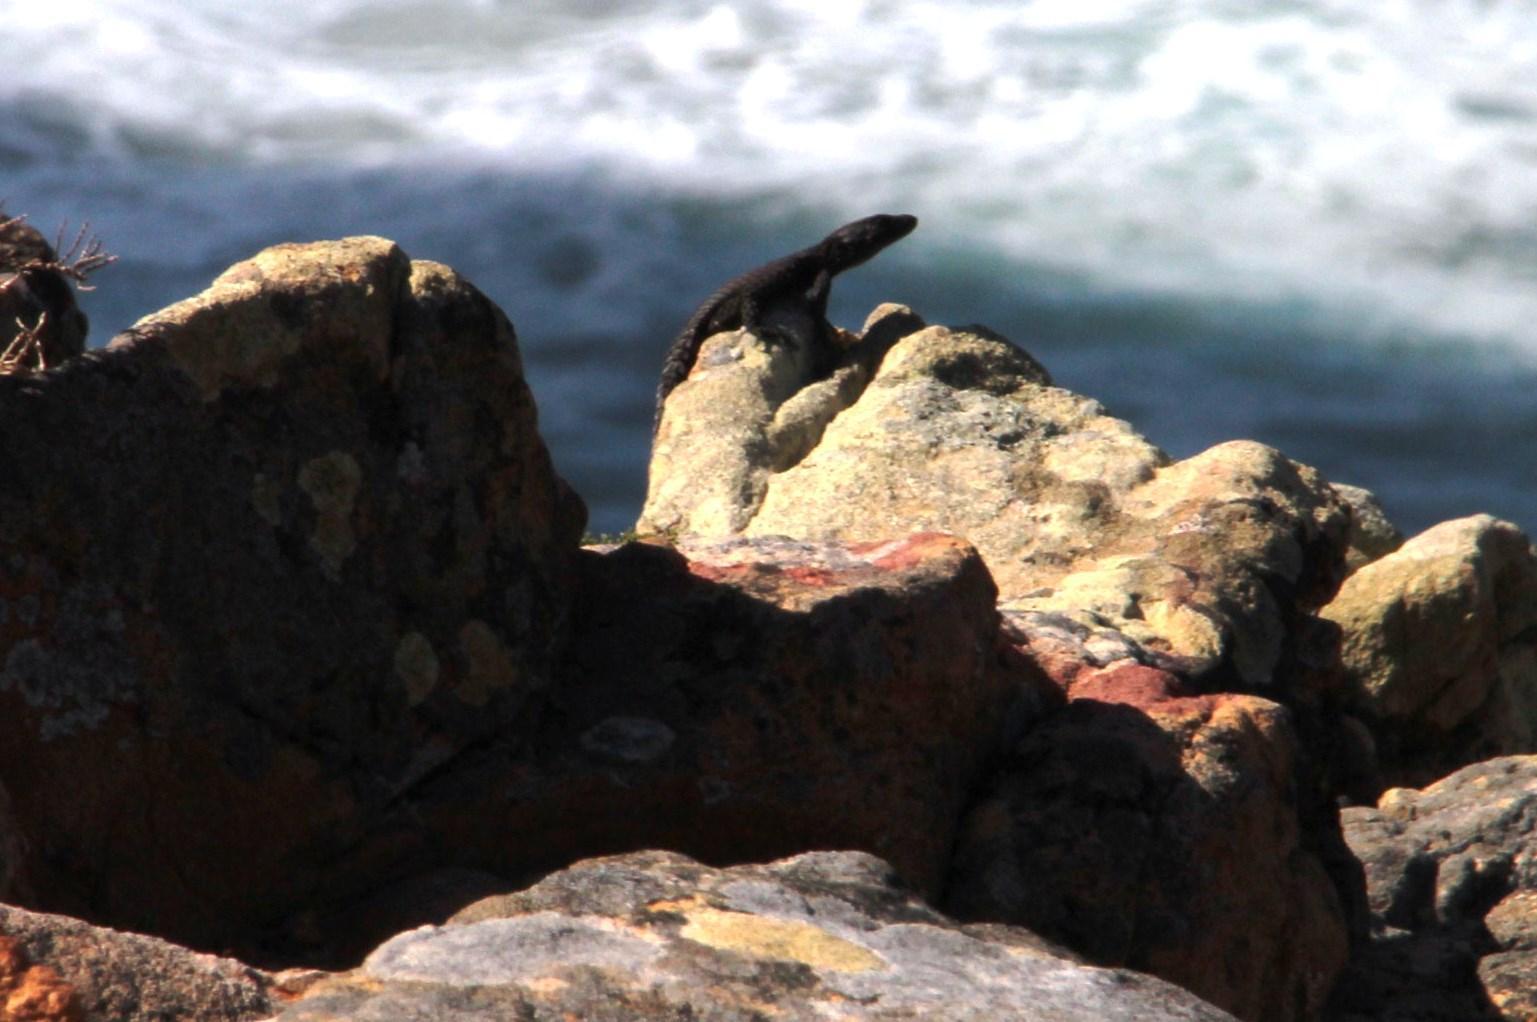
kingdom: Animalia
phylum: Chordata
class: Squamata
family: Cordylidae
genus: Cordylus
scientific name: Cordylus niger
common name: Black girdled lizard
